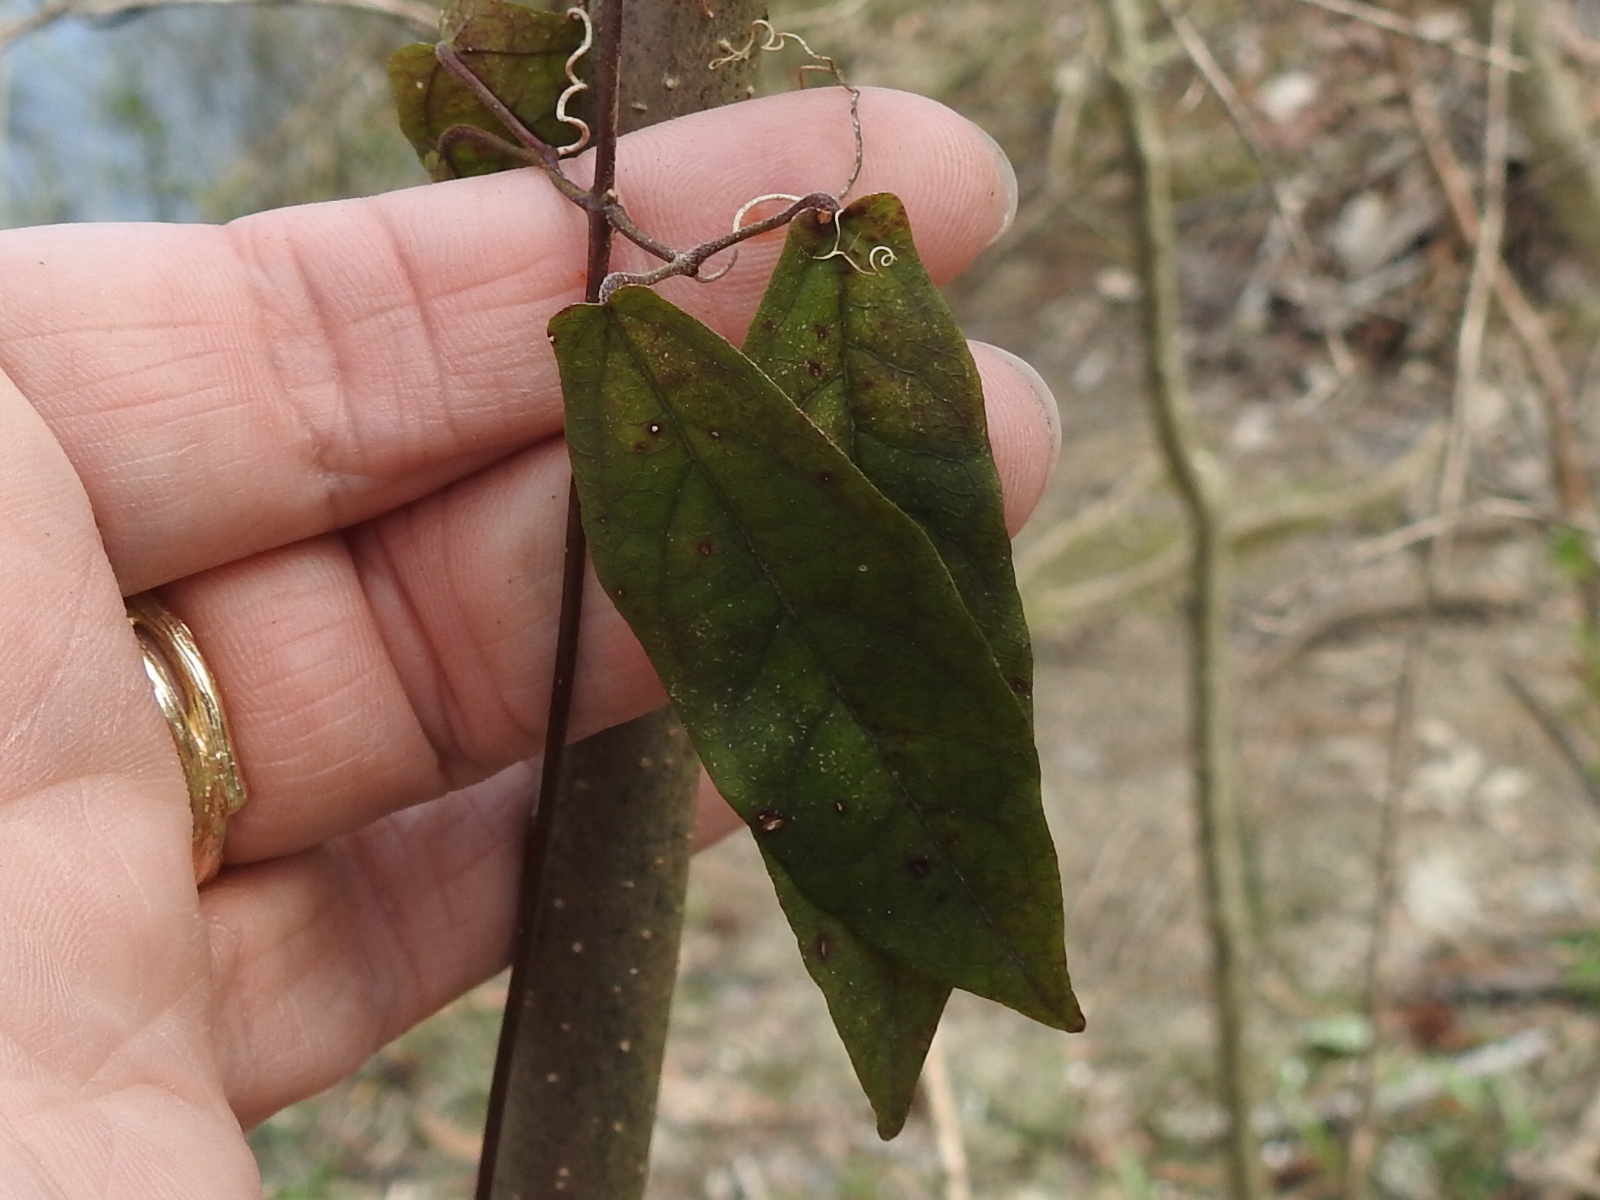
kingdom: Plantae
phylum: Tracheophyta
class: Magnoliopsida
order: Lamiales
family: Bignoniaceae
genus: Bignonia
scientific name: Bignonia capreolata
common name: Crossvine
